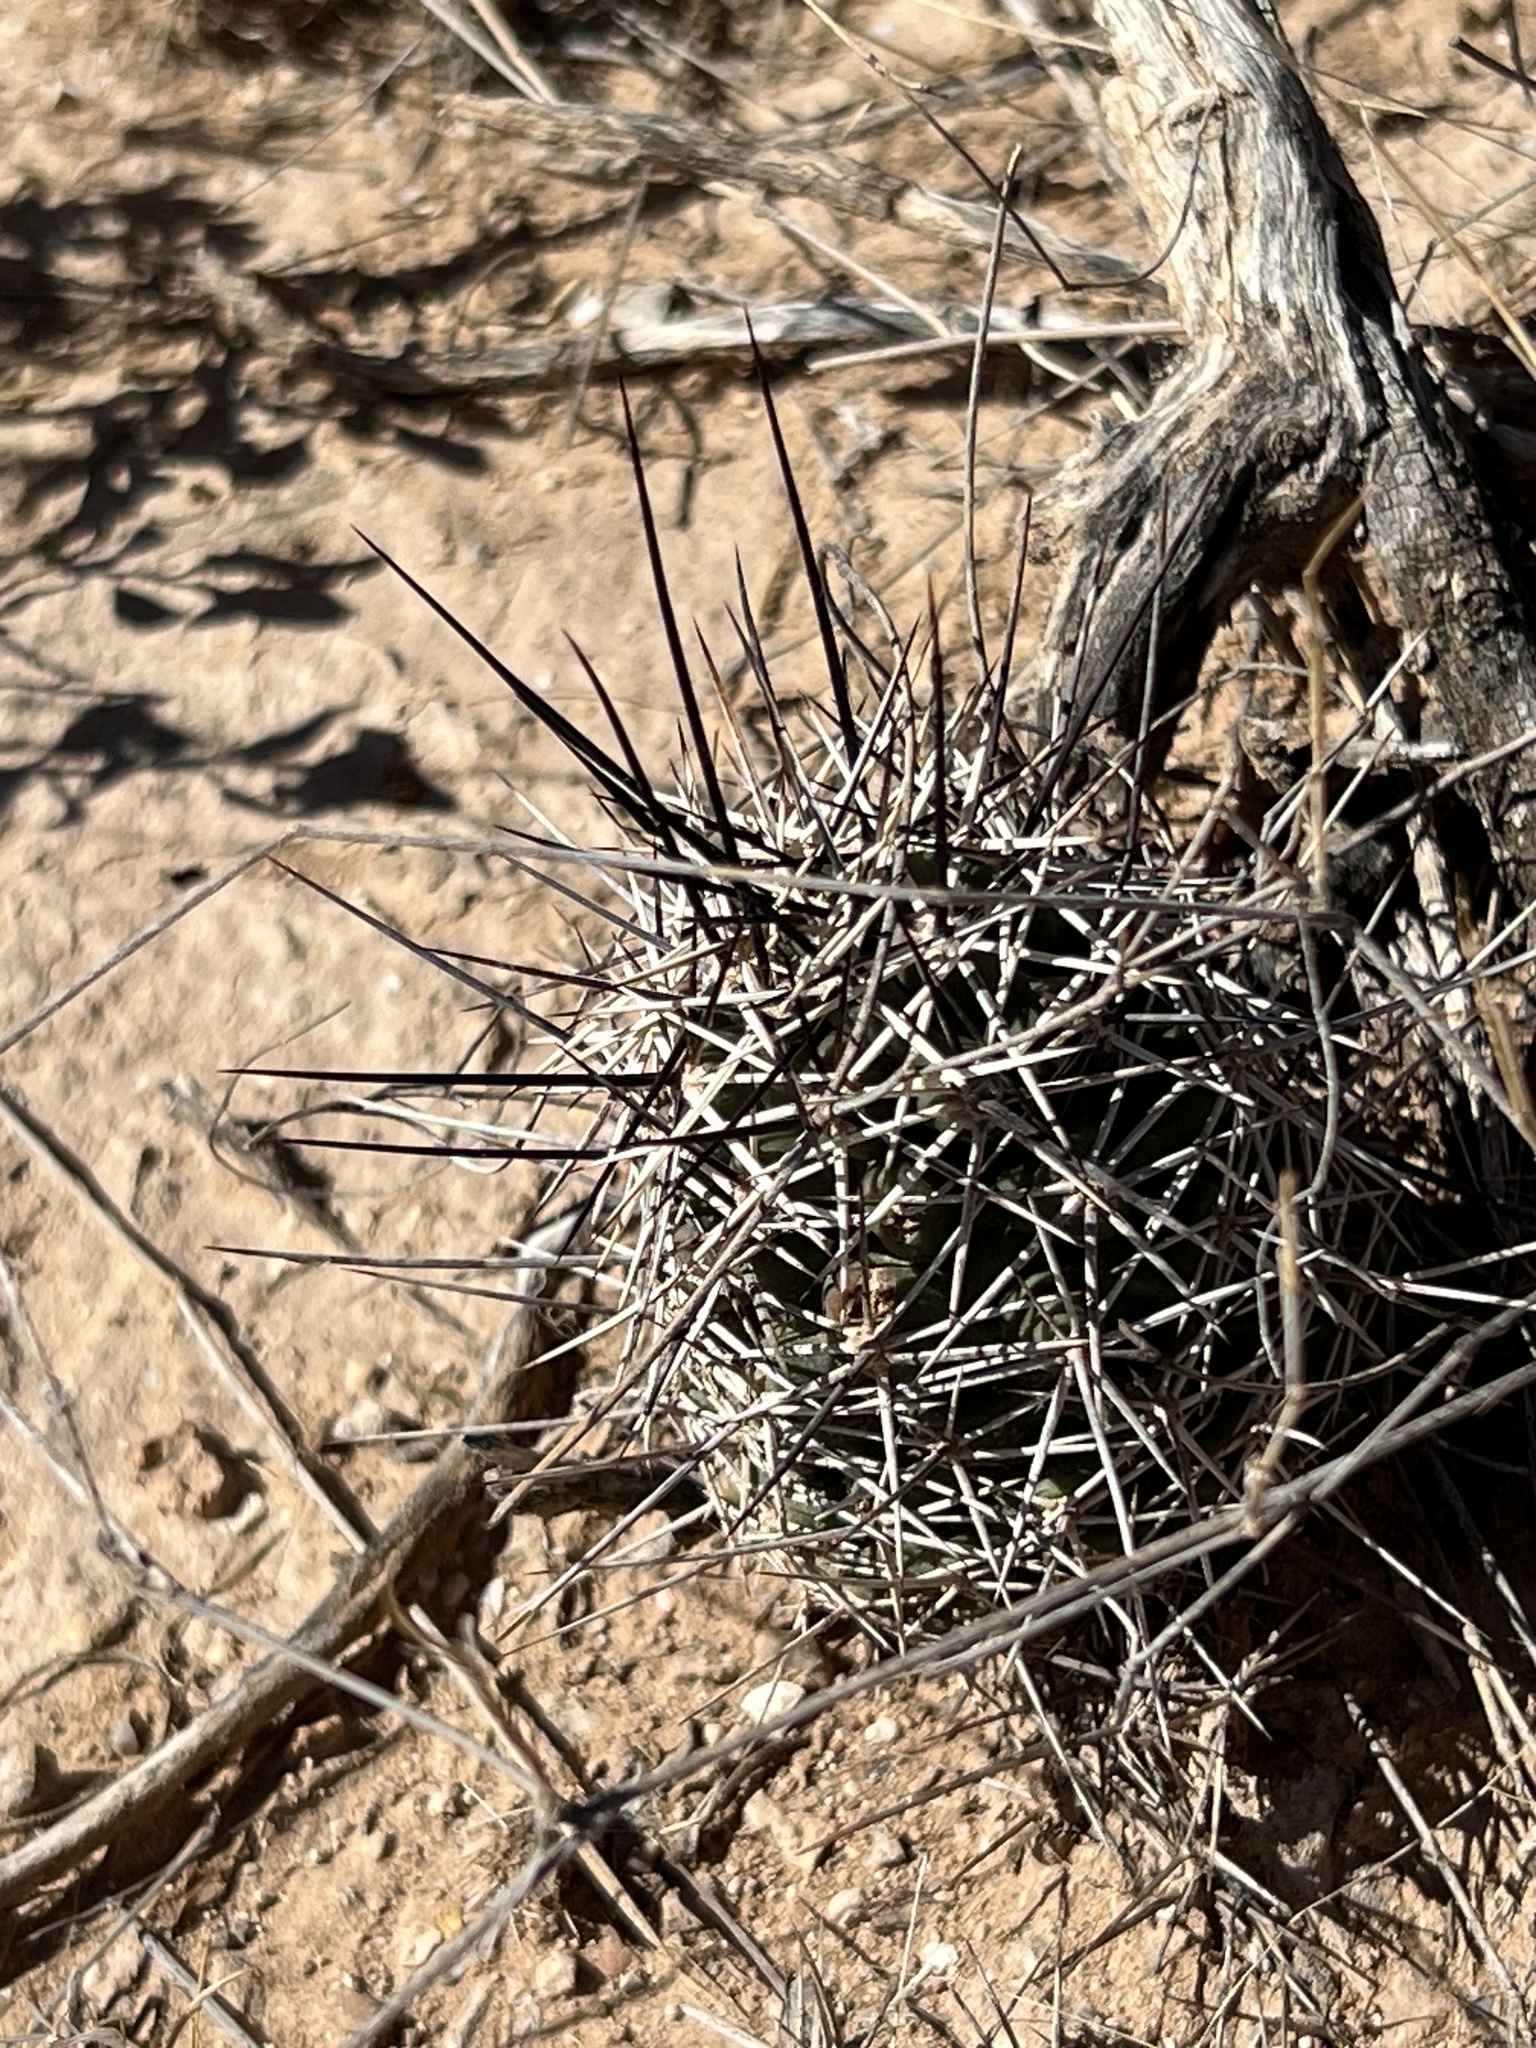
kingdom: Plantae
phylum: Tracheophyta
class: Magnoliopsida
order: Caryophyllales
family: Cactaceae
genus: Echinocereus
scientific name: Echinocereus fendleri
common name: Fendler's hedgehog cactus
